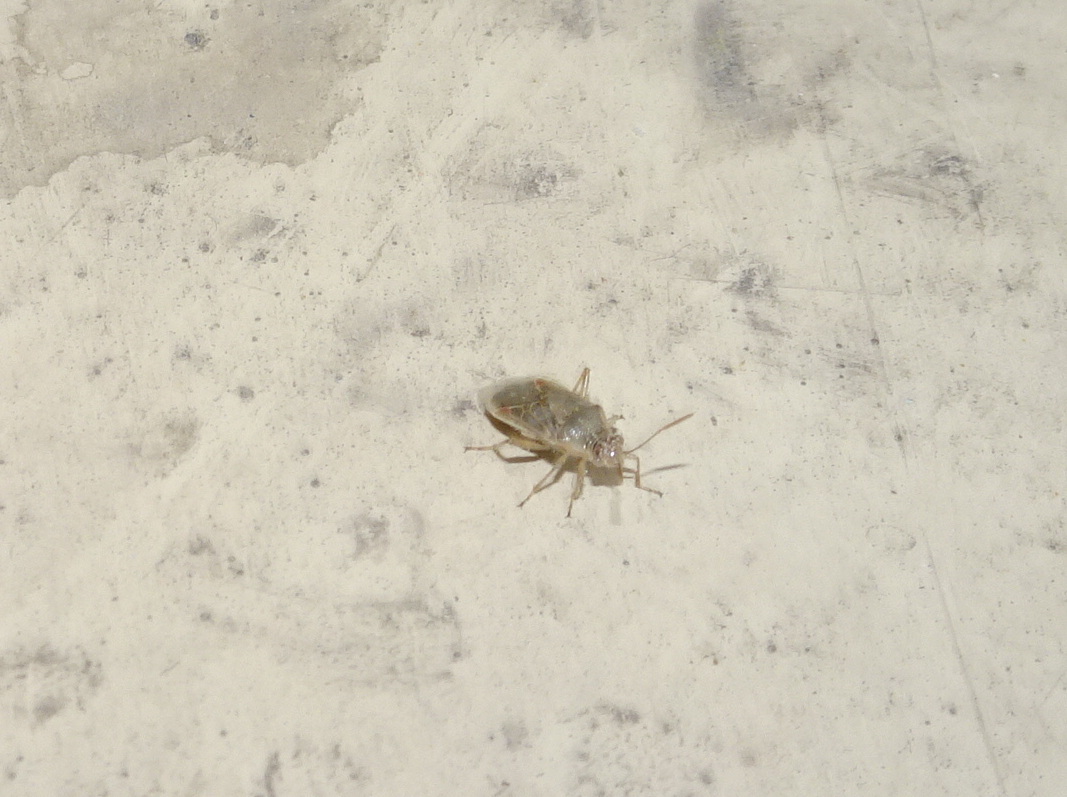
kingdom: Animalia
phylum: Arthropoda
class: Insecta
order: Hemiptera
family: Rhopalidae
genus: Liorhyssus
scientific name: Liorhyssus hyalinus
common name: Scentless plant bug
